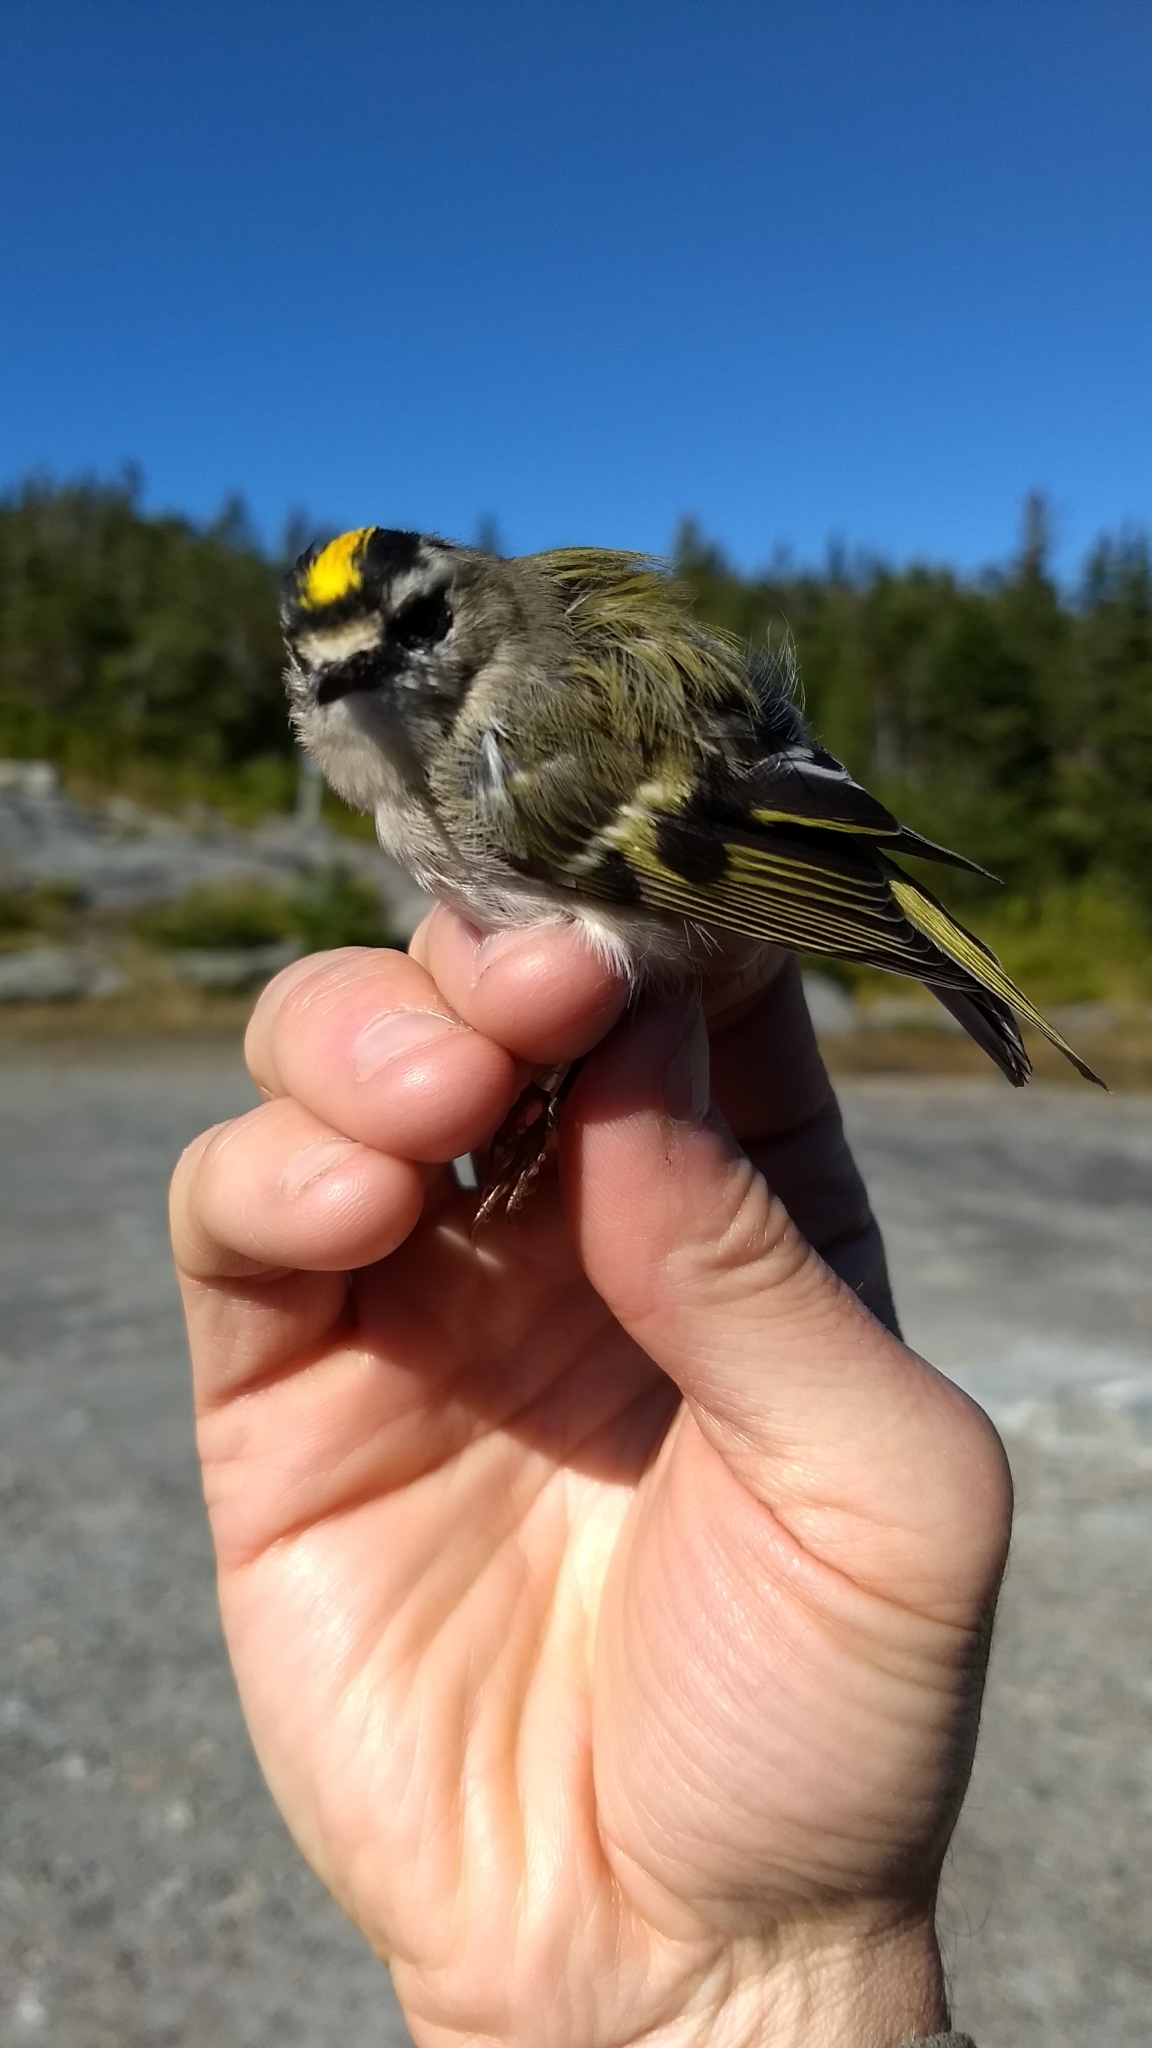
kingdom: Animalia
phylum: Chordata
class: Aves
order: Passeriformes
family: Regulidae
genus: Regulus
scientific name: Regulus satrapa
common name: Golden-crowned kinglet
